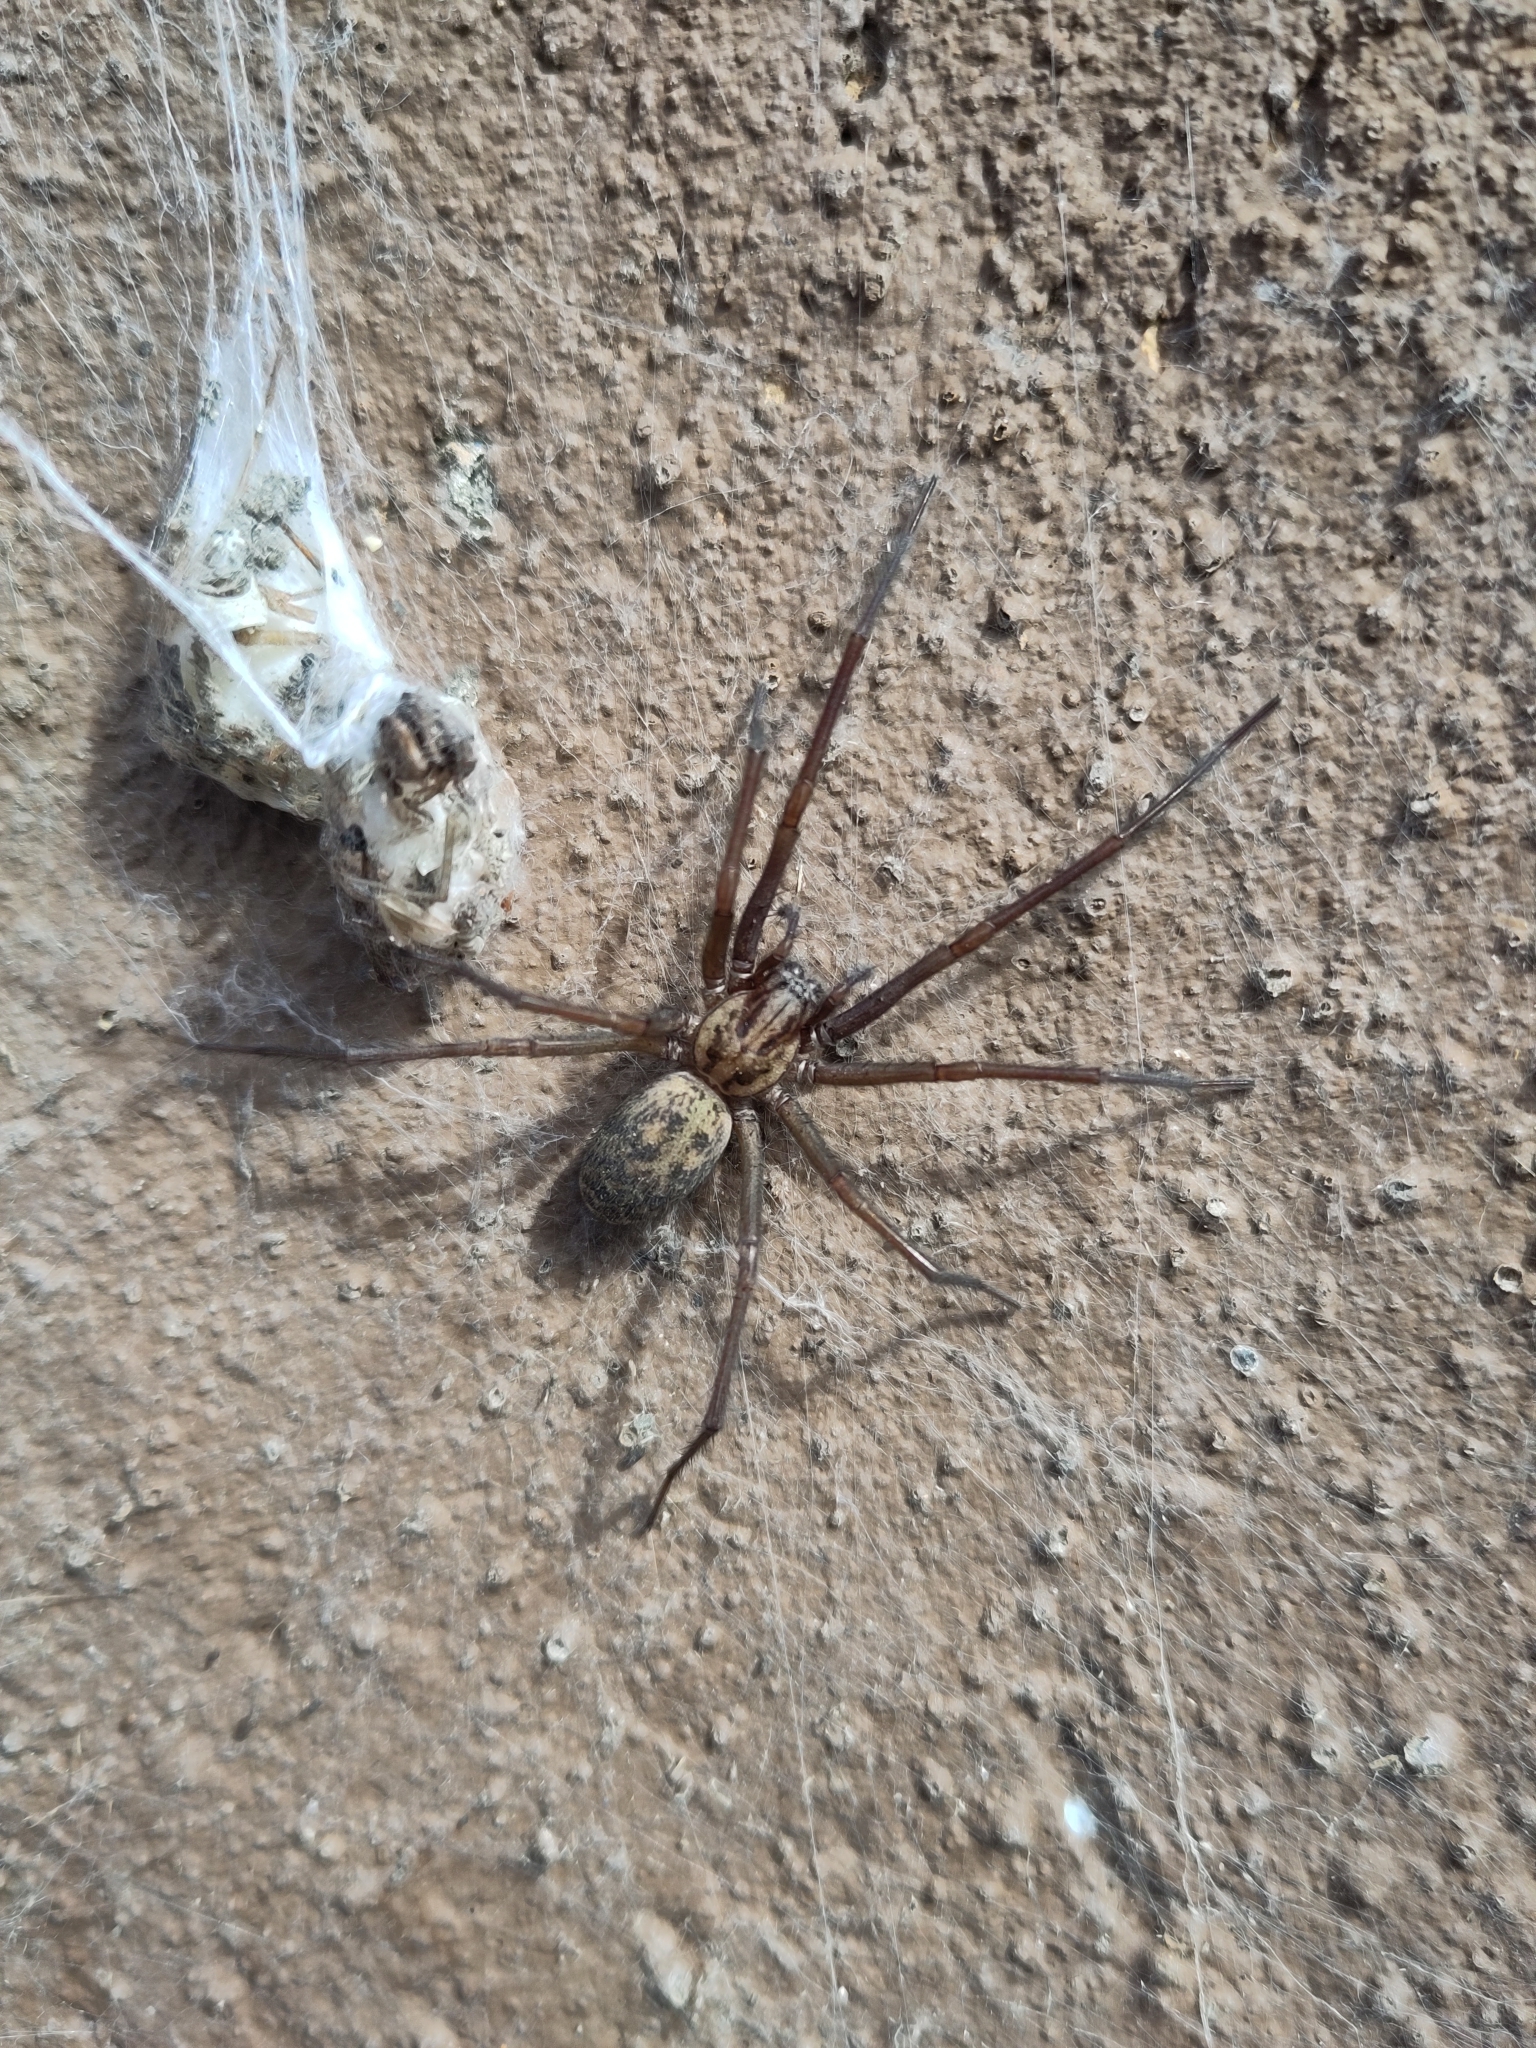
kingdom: Animalia
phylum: Arthropoda
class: Arachnida
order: Araneae
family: Agelenidae
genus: Eratigena
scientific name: Eratigena duellica
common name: Giant house spider
